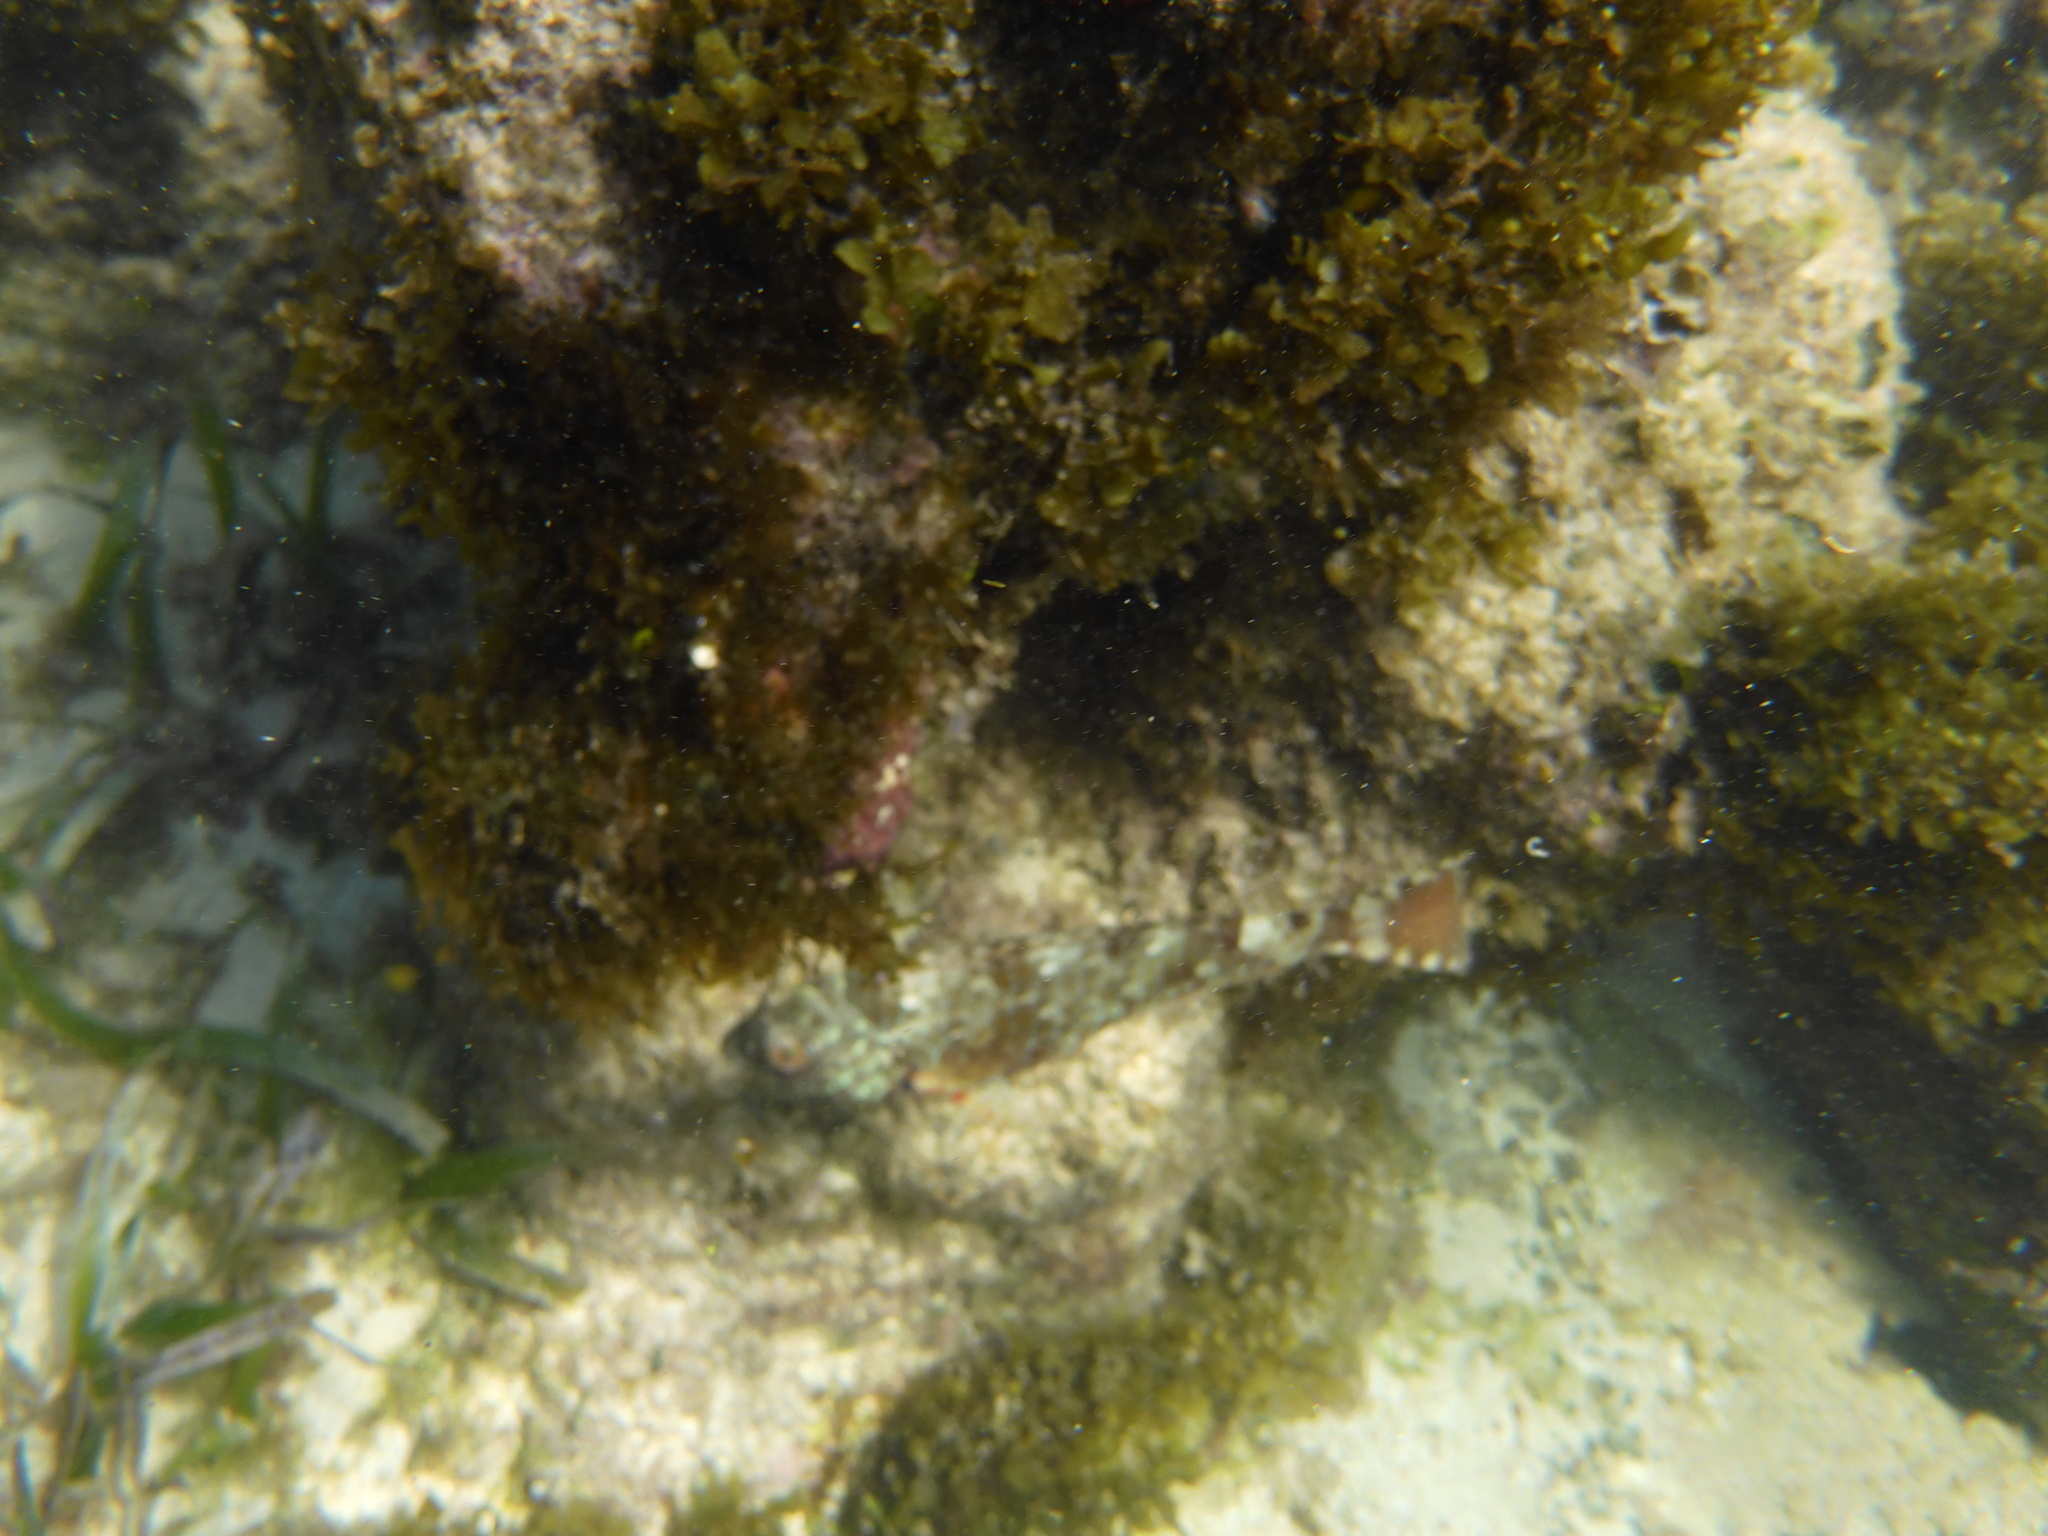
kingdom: Animalia
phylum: Chordata
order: Perciformes
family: Scaridae
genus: Sparisoma
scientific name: Sparisoma chrysopterum
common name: Redtail parrotfish
